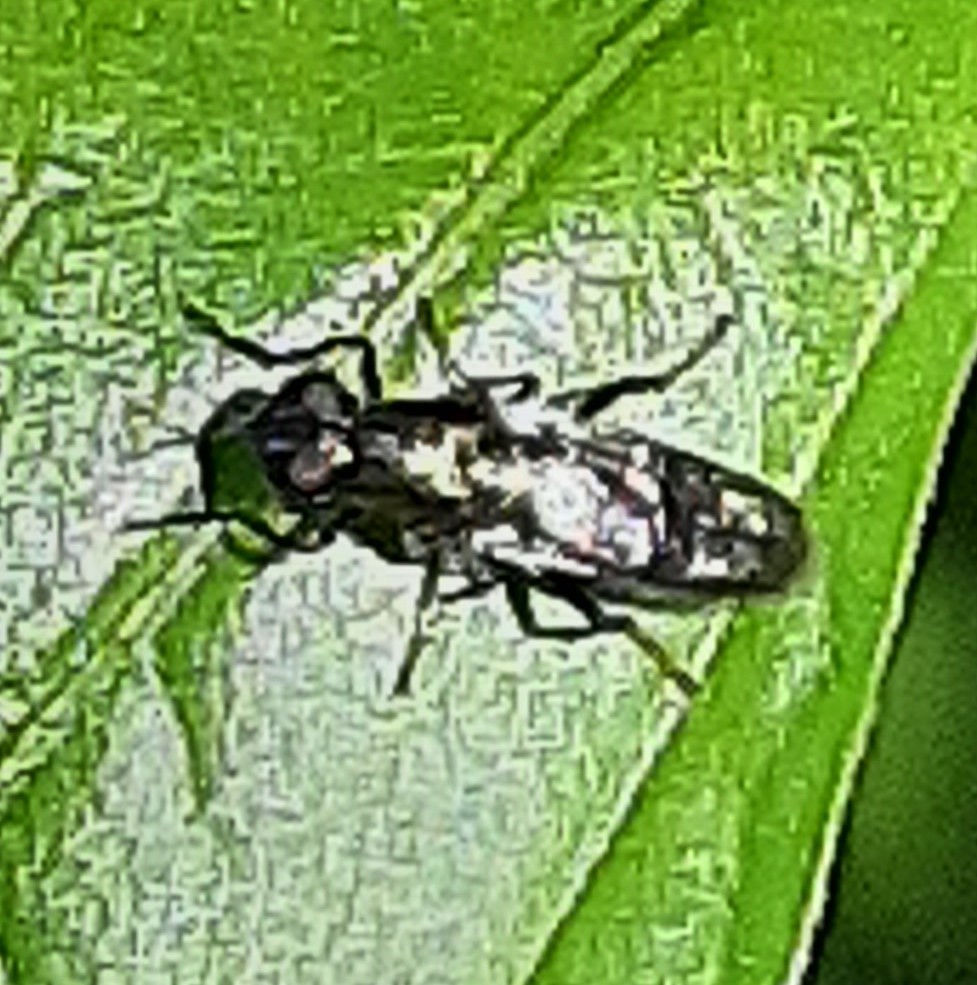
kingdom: Animalia
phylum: Arthropoda
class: Insecta
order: Diptera
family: Stratiomyidae
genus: Myxosargus
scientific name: Myxosargus nigricormis
